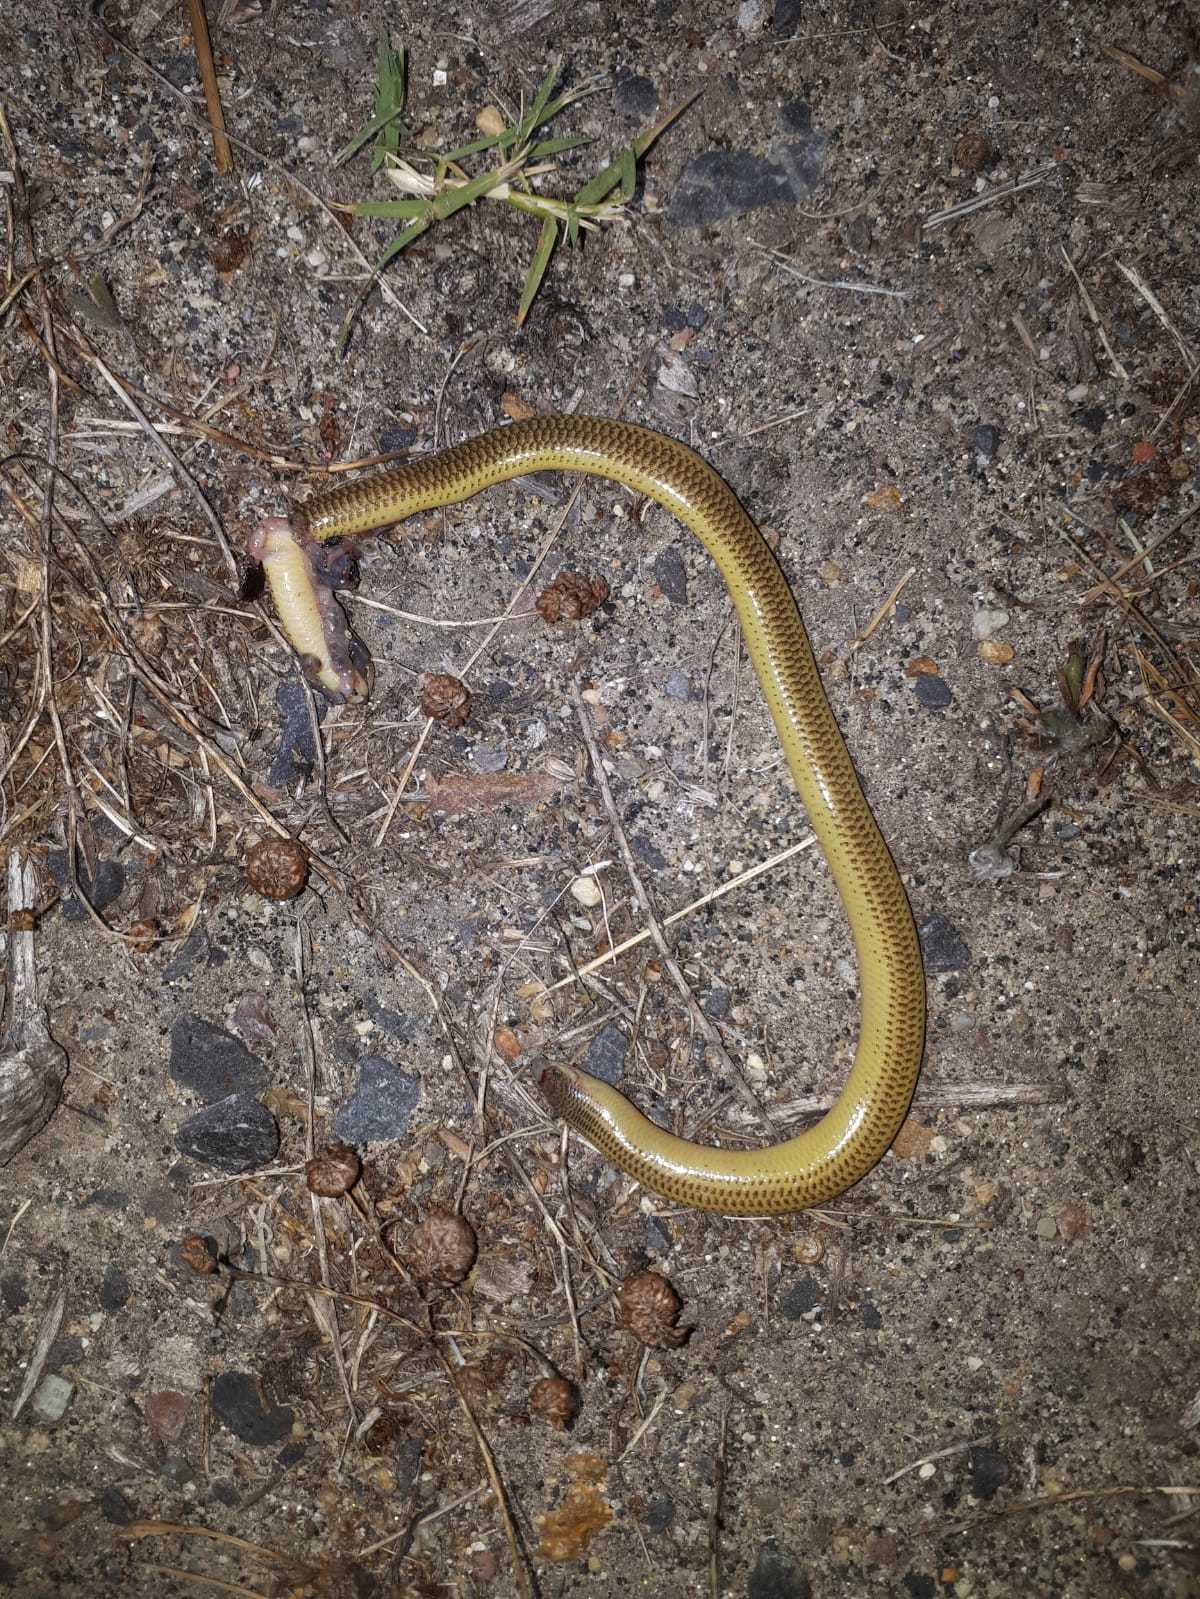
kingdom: Animalia
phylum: Chordata
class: Squamata
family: Scincidae
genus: Acontias
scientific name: Acontias meleagris
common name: Cape legless skink
